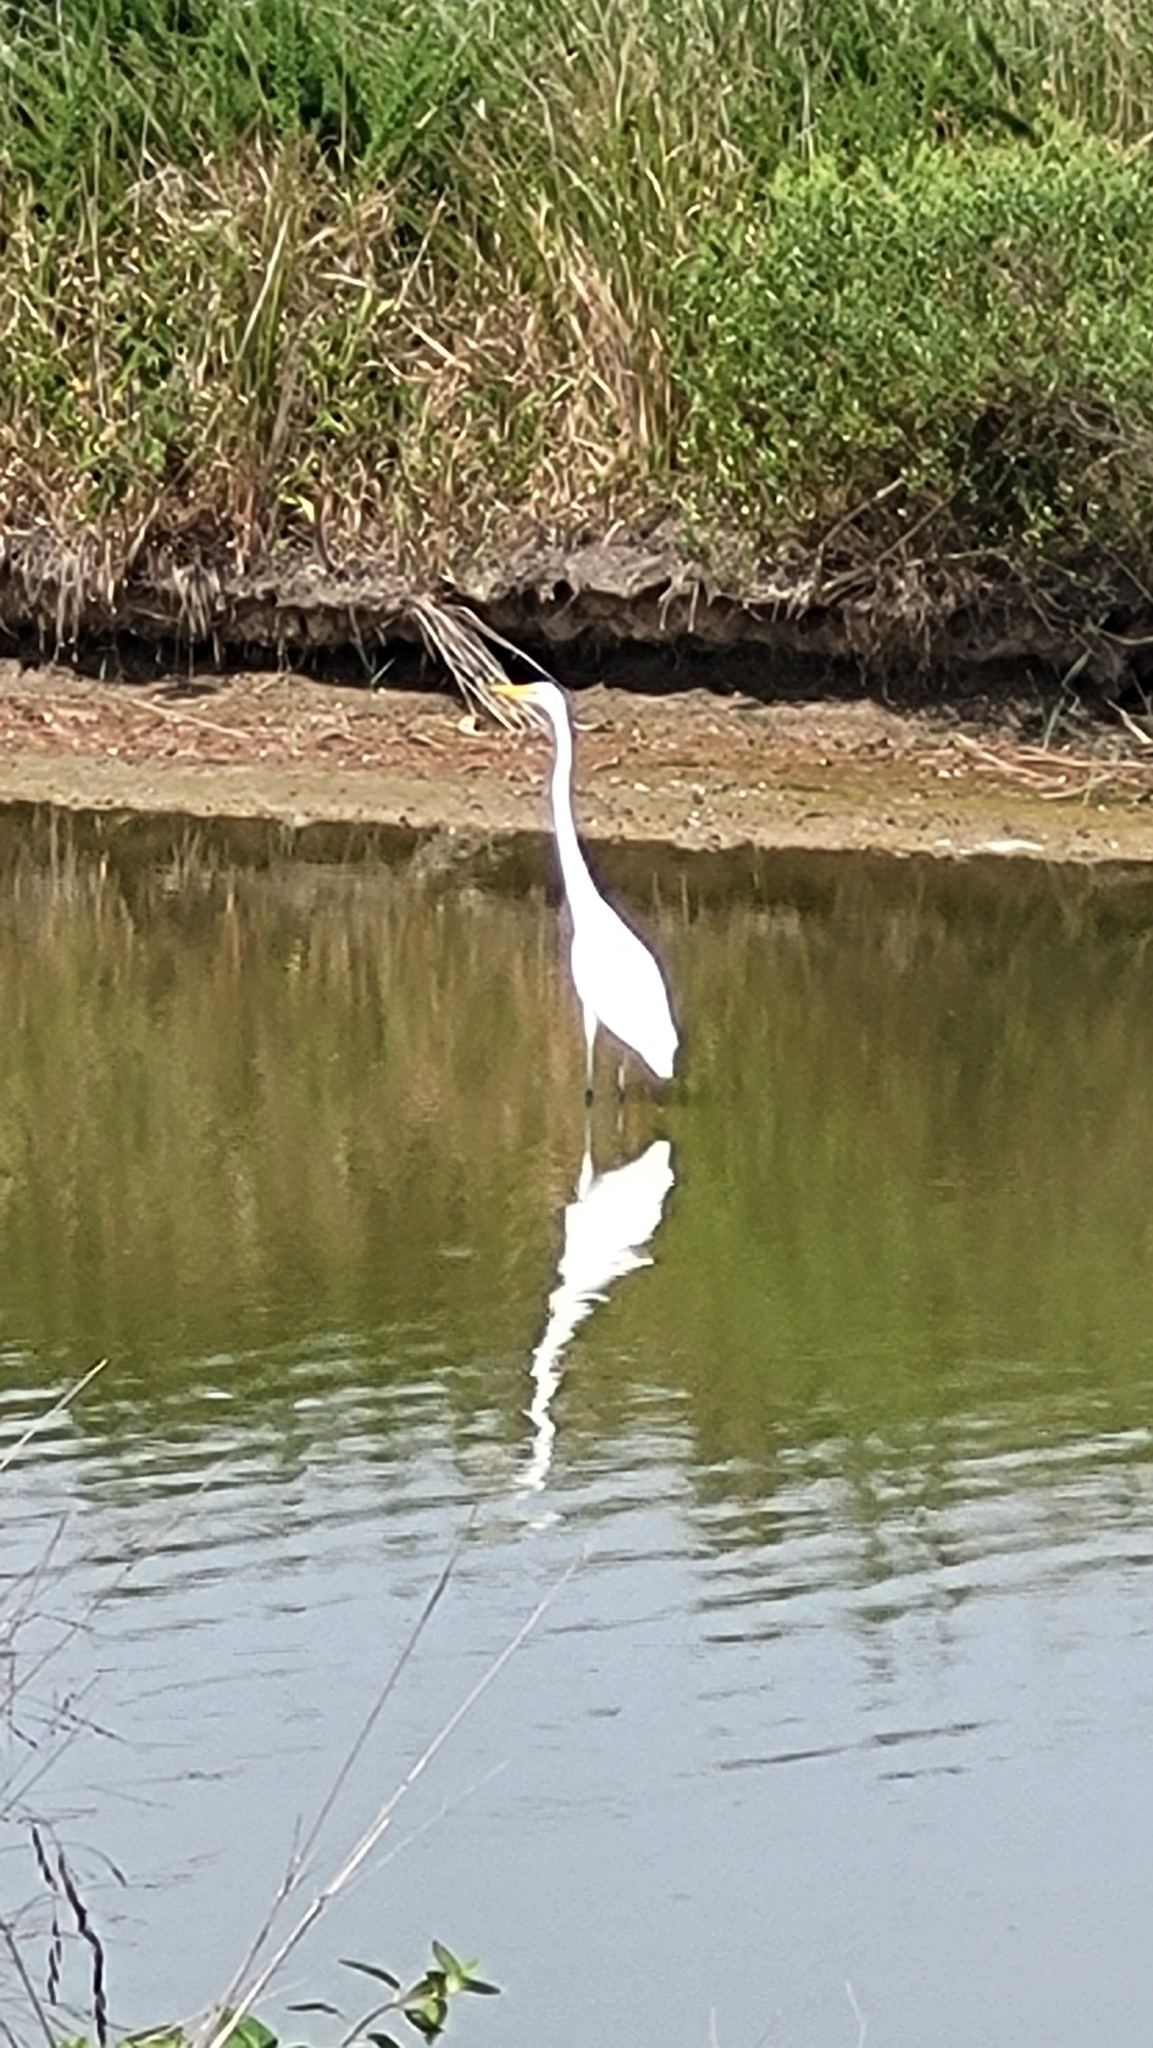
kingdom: Animalia
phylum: Chordata
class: Aves
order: Pelecaniformes
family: Ardeidae
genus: Ardea
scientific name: Ardea alba
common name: Great egret
